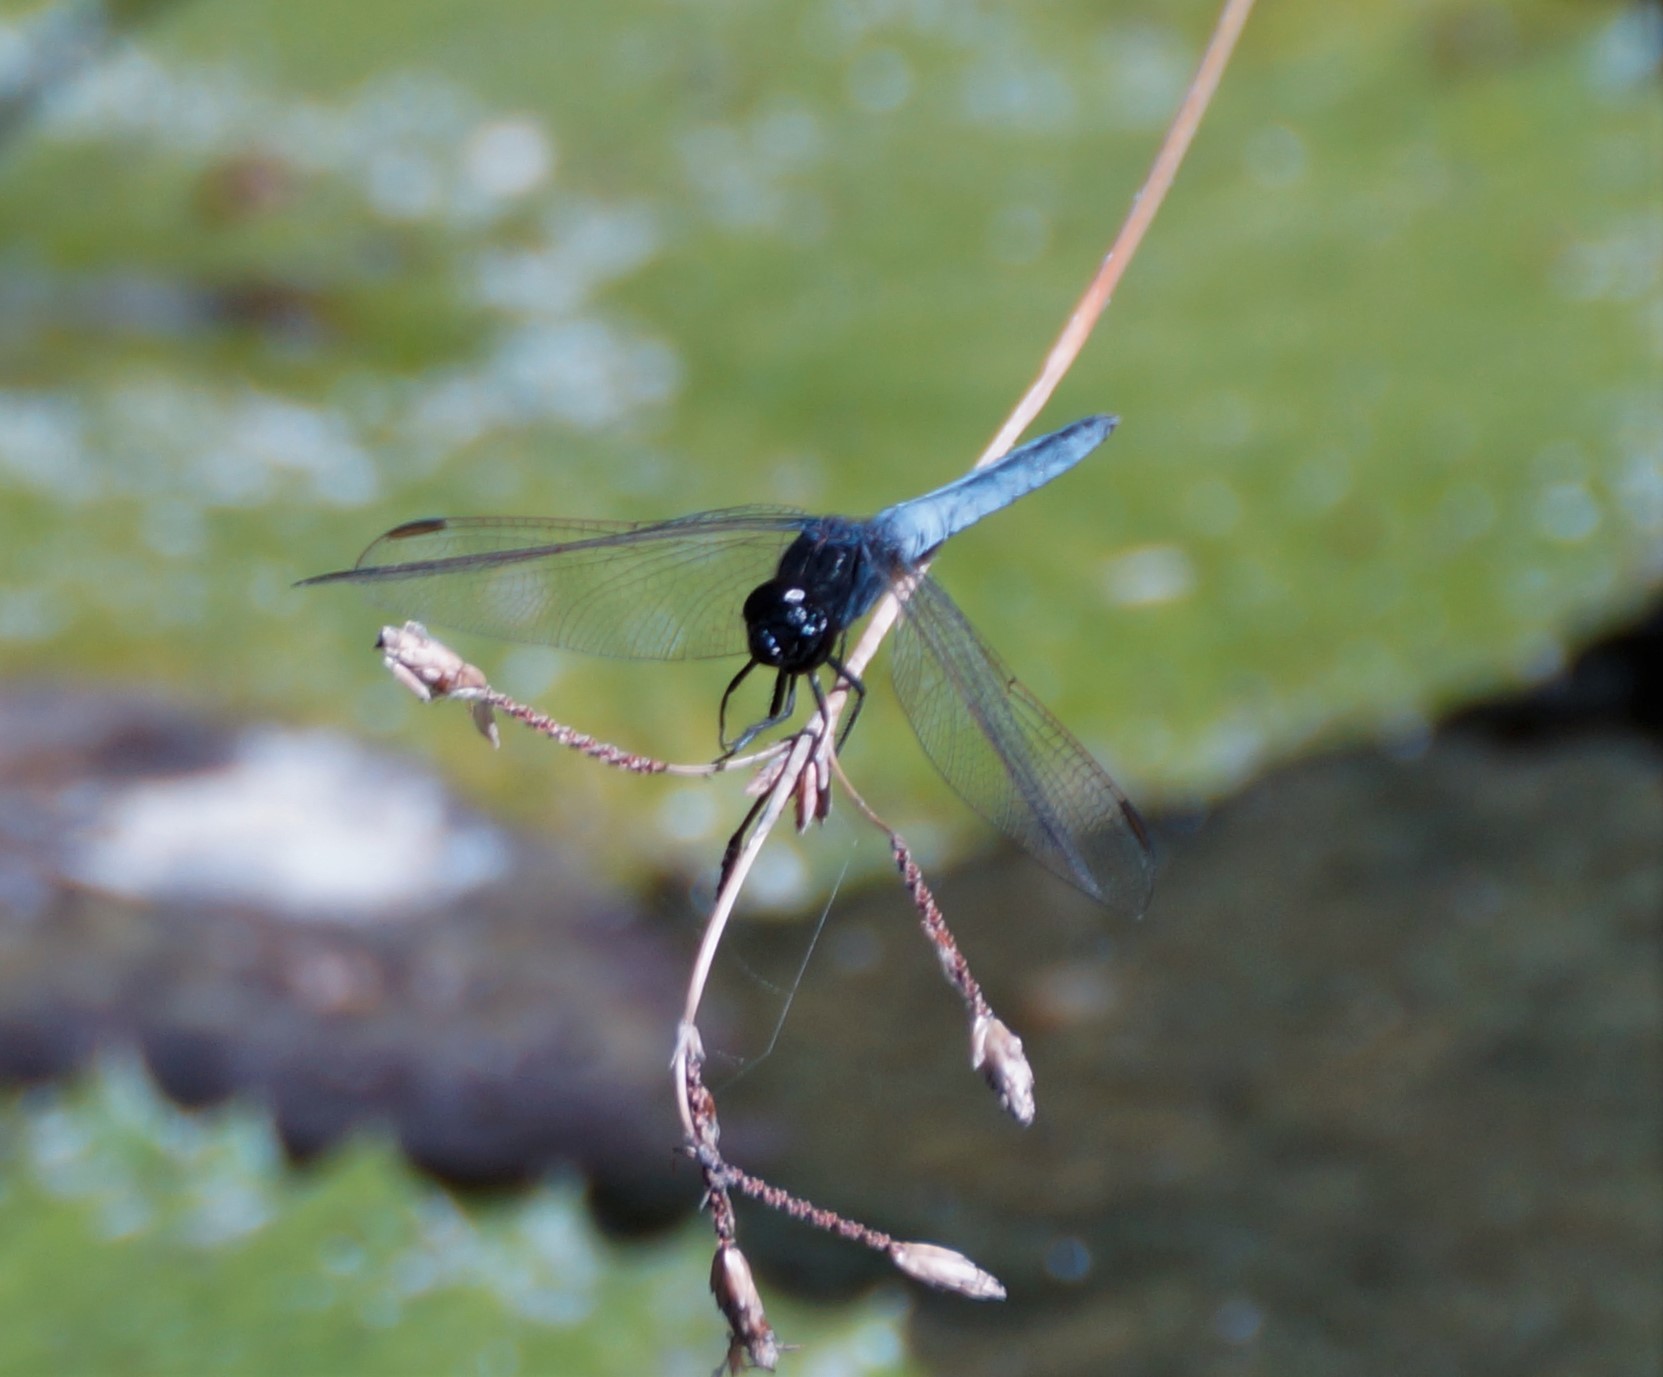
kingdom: Animalia
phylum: Arthropoda
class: Insecta
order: Odonata
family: Libellulidae
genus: Crocothemis
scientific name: Crocothemis nigrifrons
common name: Black-headed skimmer
